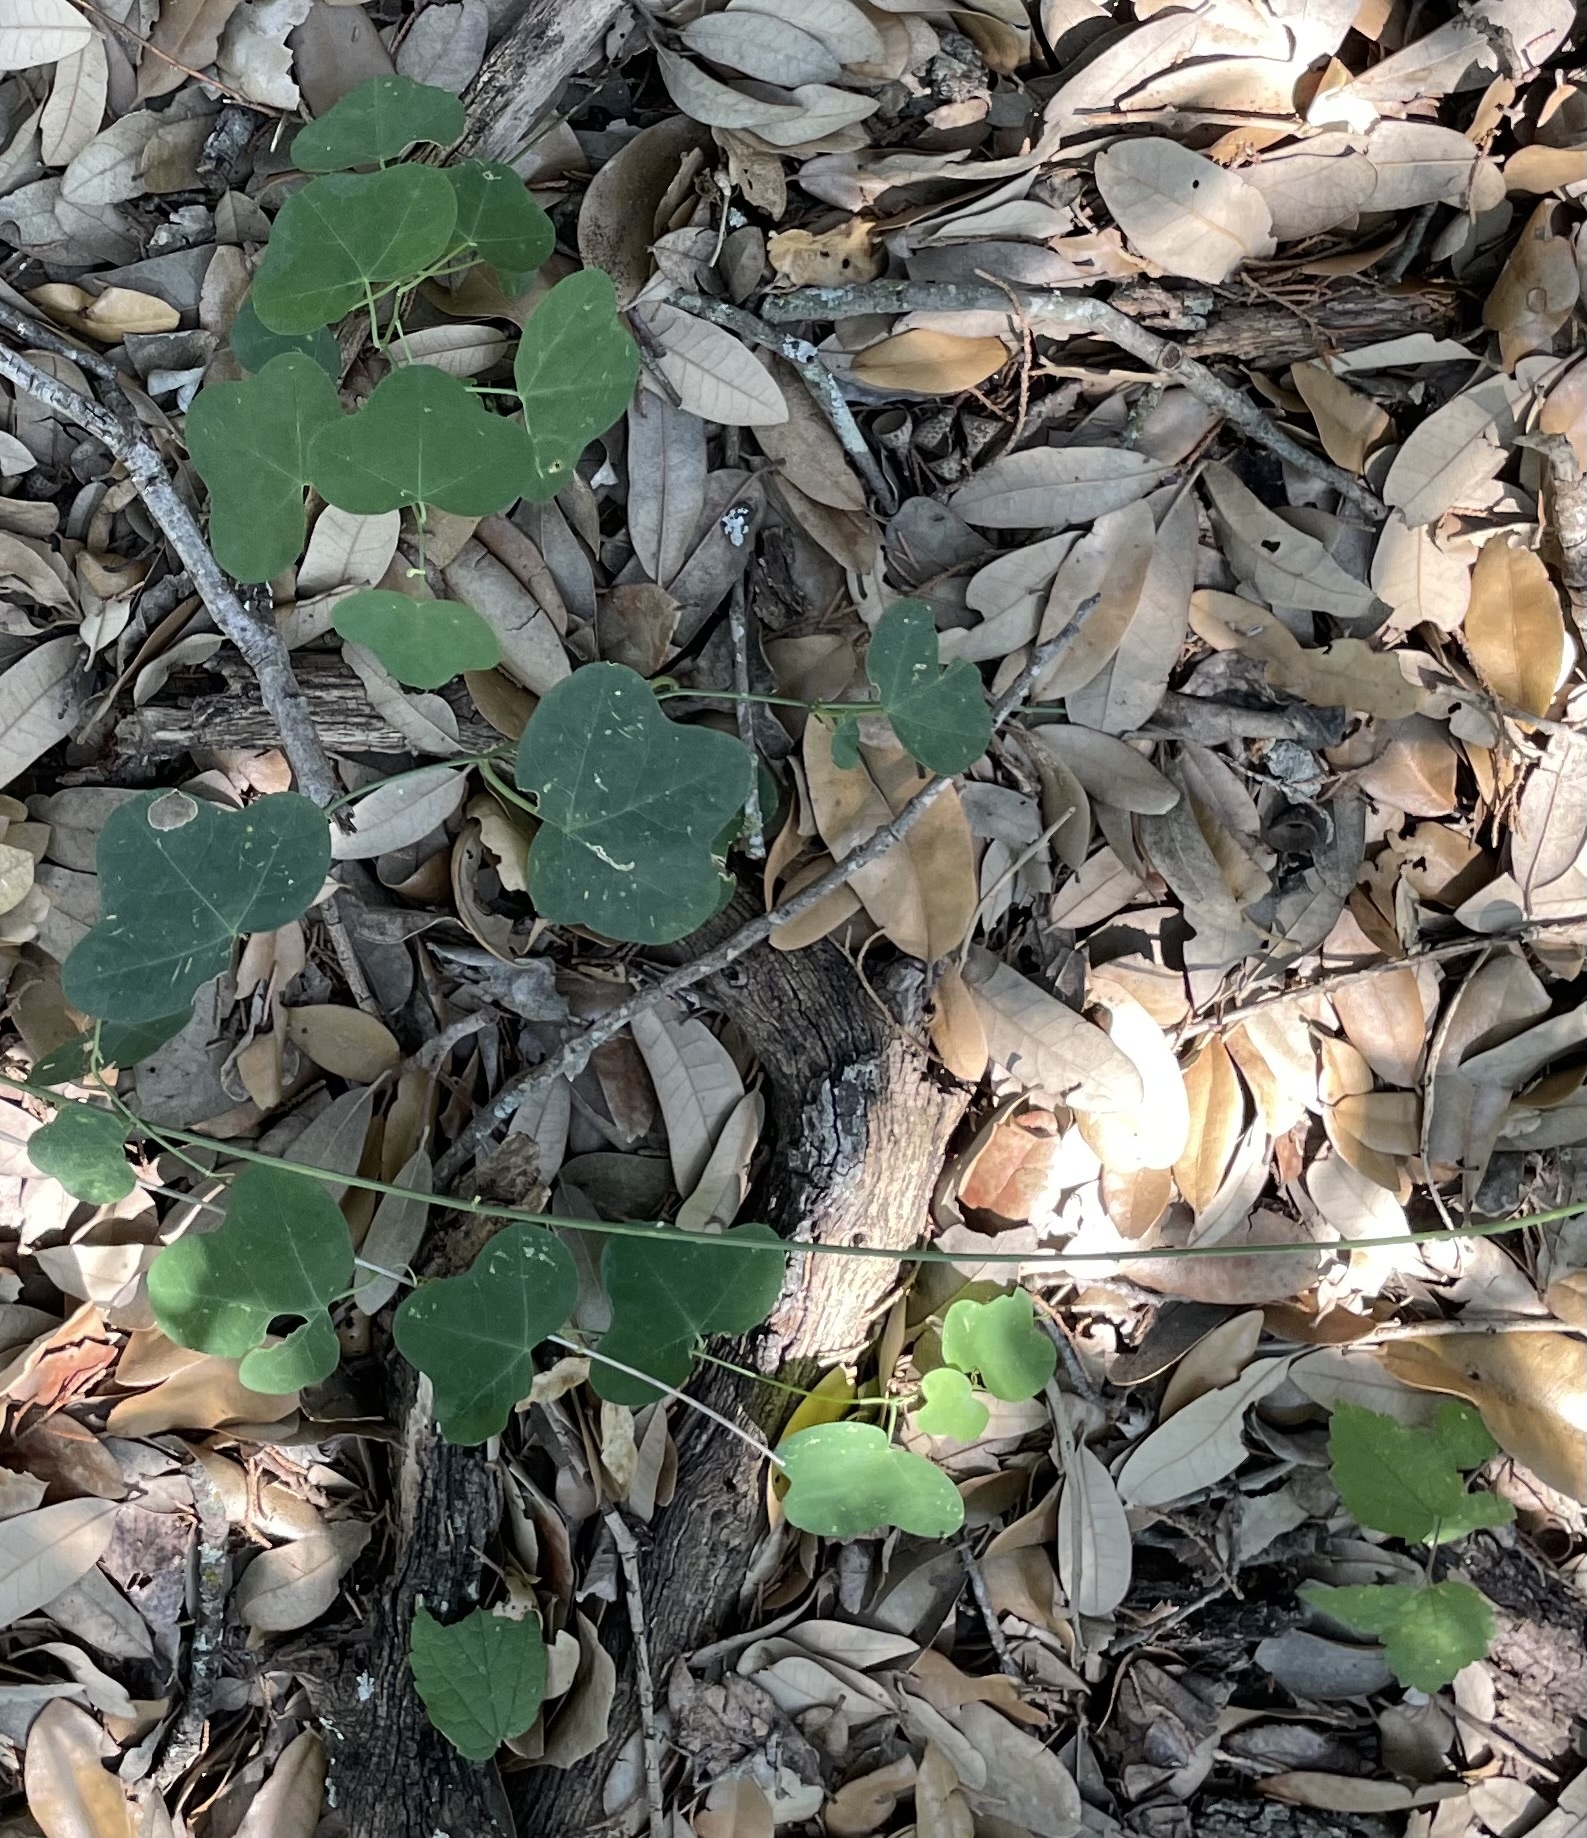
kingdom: Plantae
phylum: Tracheophyta
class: Magnoliopsida
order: Malpighiales
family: Passifloraceae
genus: Passiflora
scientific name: Passiflora lutea
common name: Yellow passionflower
